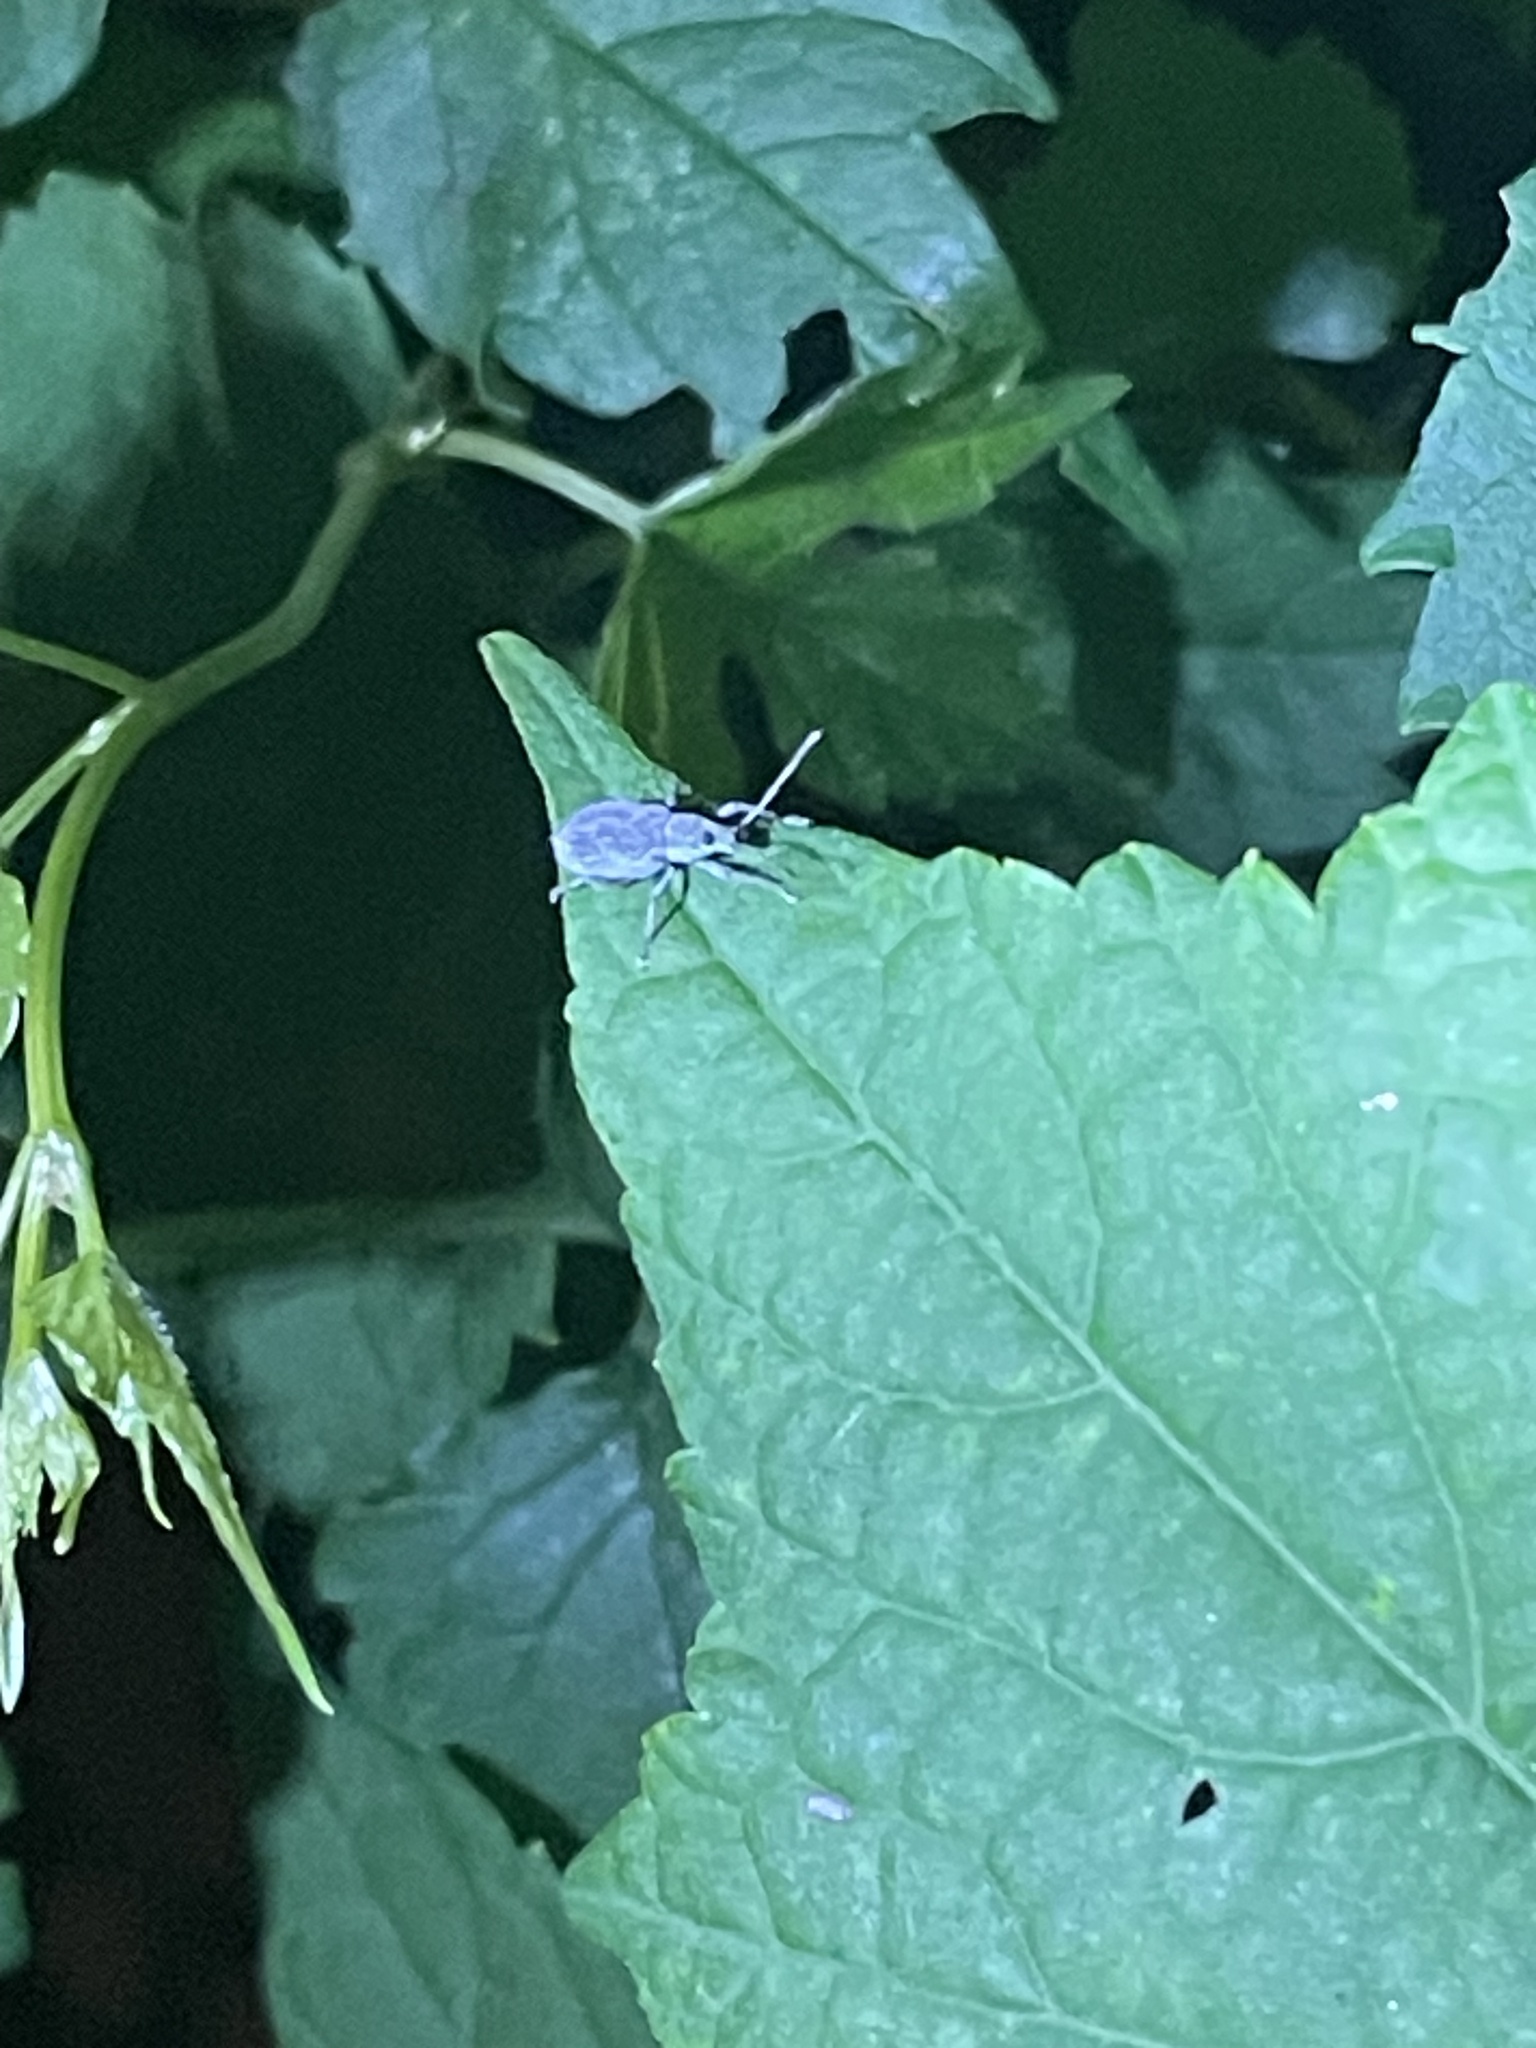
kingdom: Animalia
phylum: Arthropoda
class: Insecta
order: Coleoptera
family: Curculionidae
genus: Cyrtepistomus
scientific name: Cyrtepistomus castaneus
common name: Weevil
